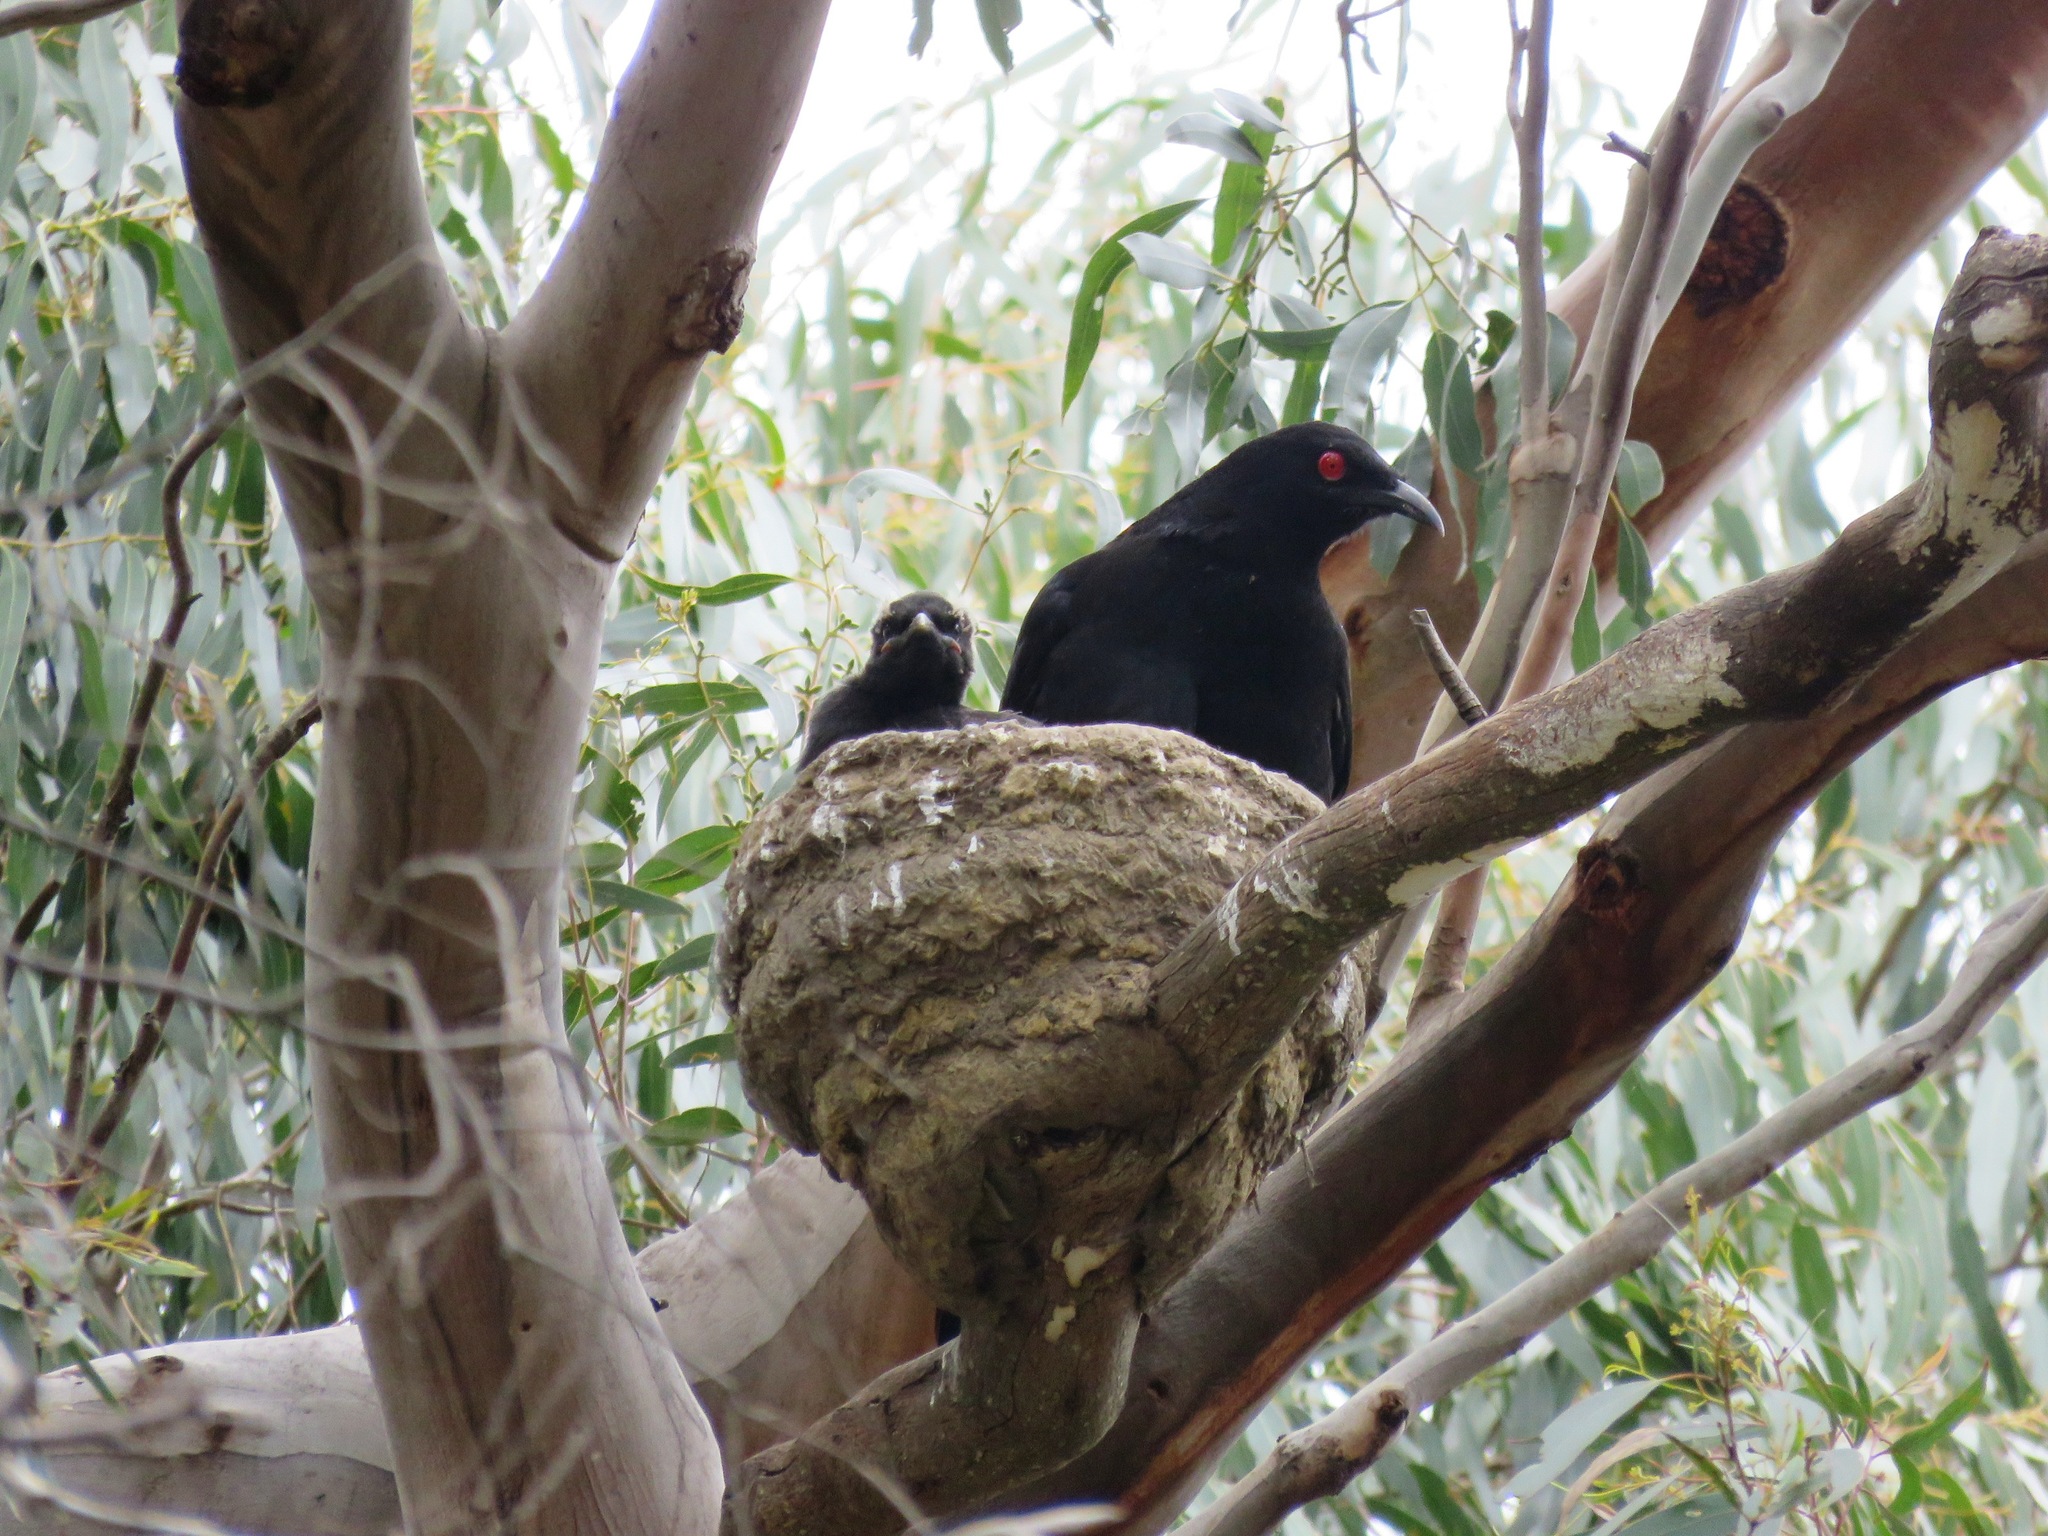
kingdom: Animalia
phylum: Chordata
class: Aves
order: Passeriformes
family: Corcoracidae
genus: Corcorax
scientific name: Corcorax melanoramphos
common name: White-winged chough
